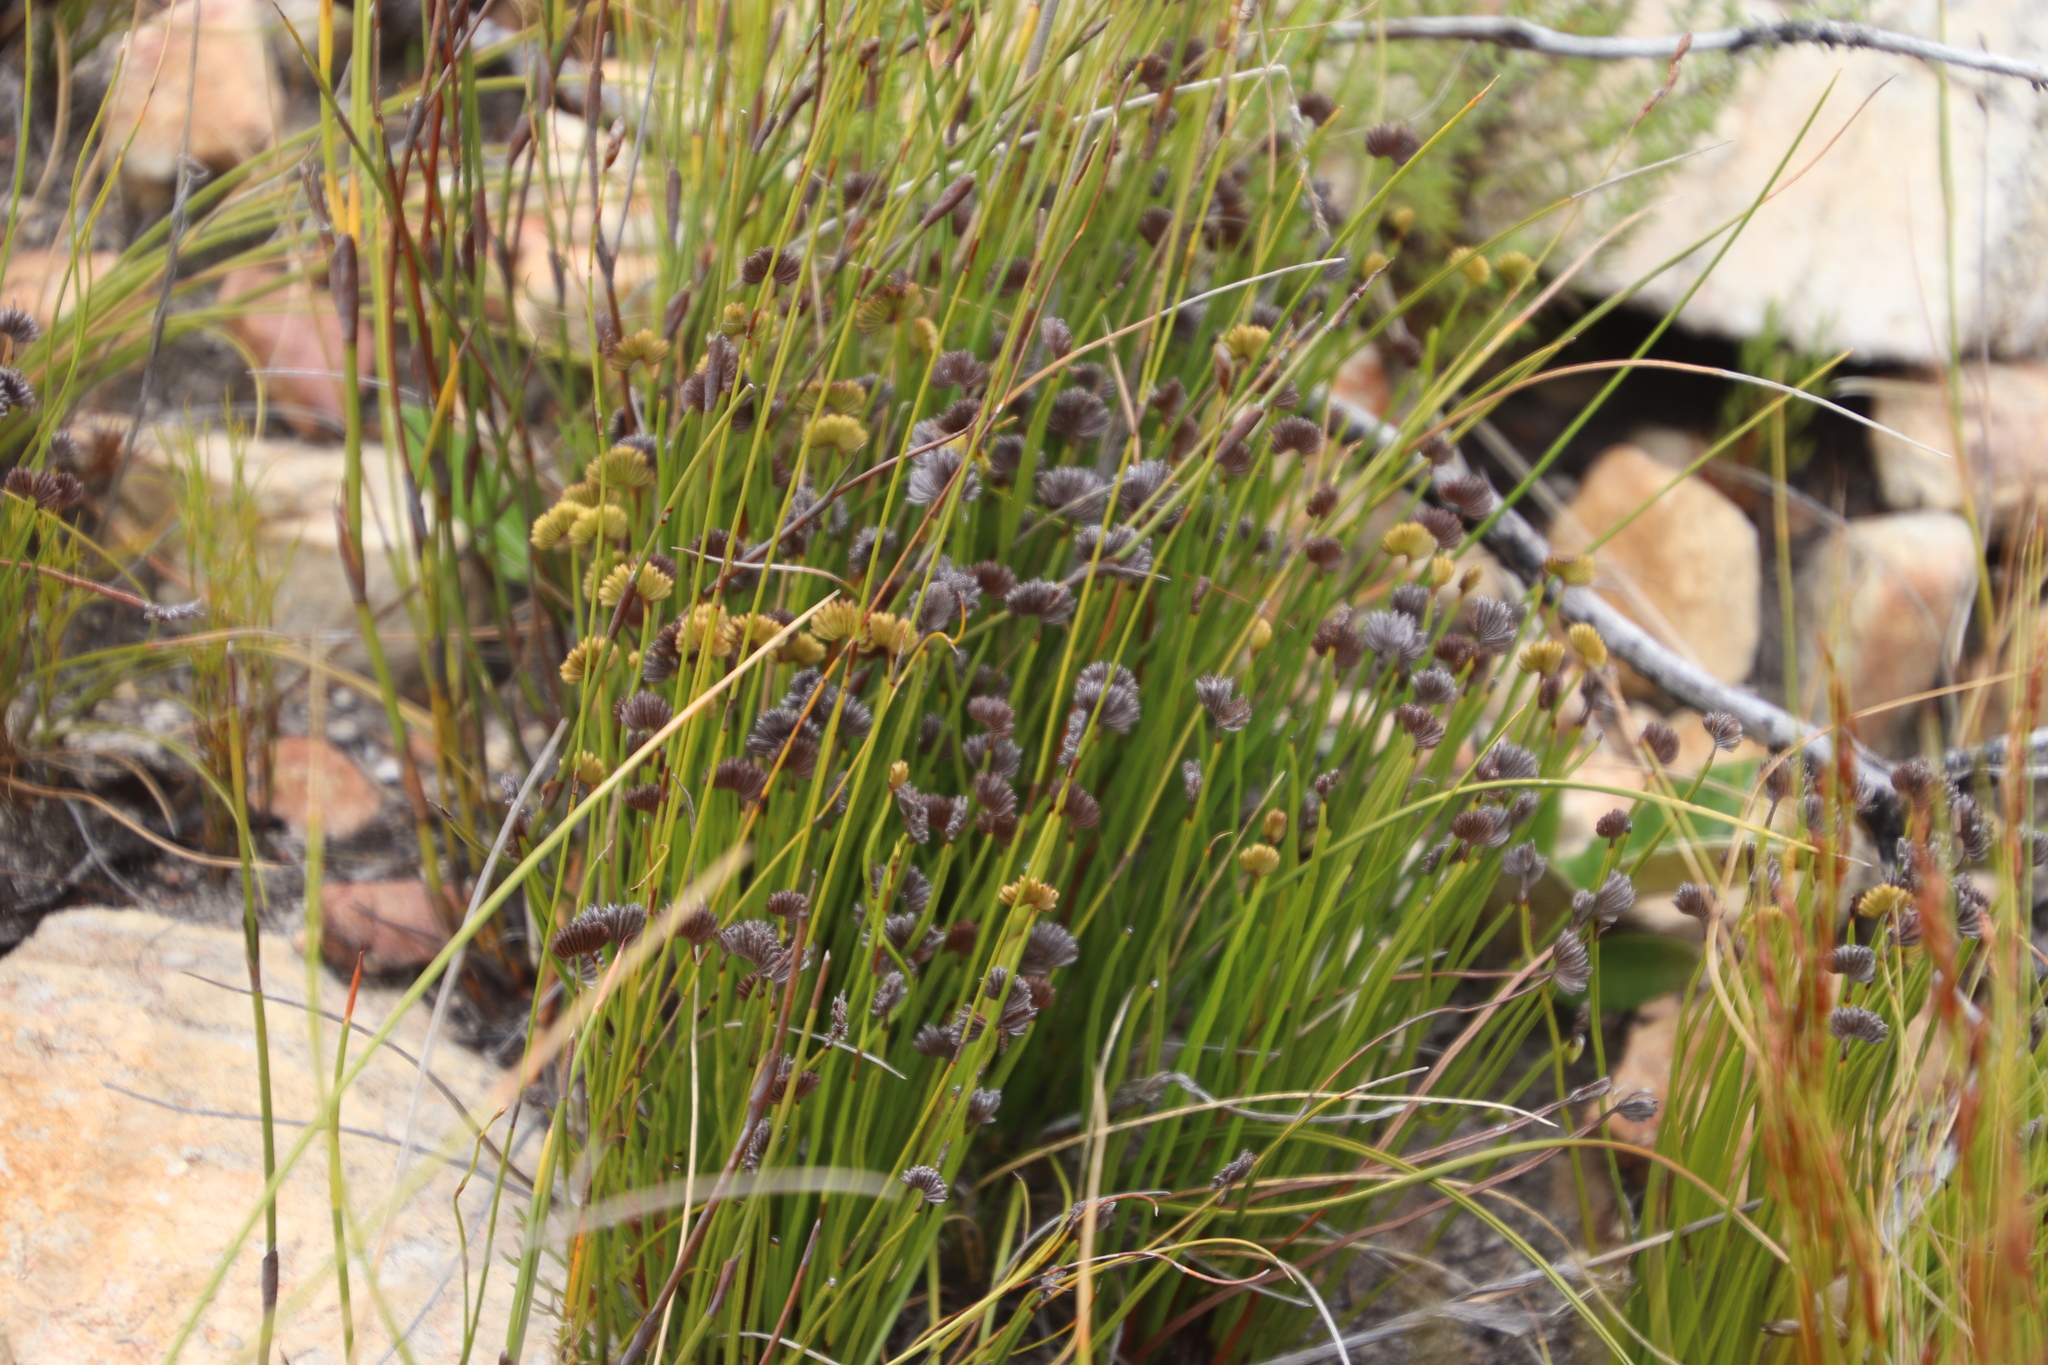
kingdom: Plantae
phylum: Tracheophyta
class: Polypodiopsida
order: Schizaeales
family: Schizaeaceae
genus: Schizaea
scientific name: Schizaea pectinata
